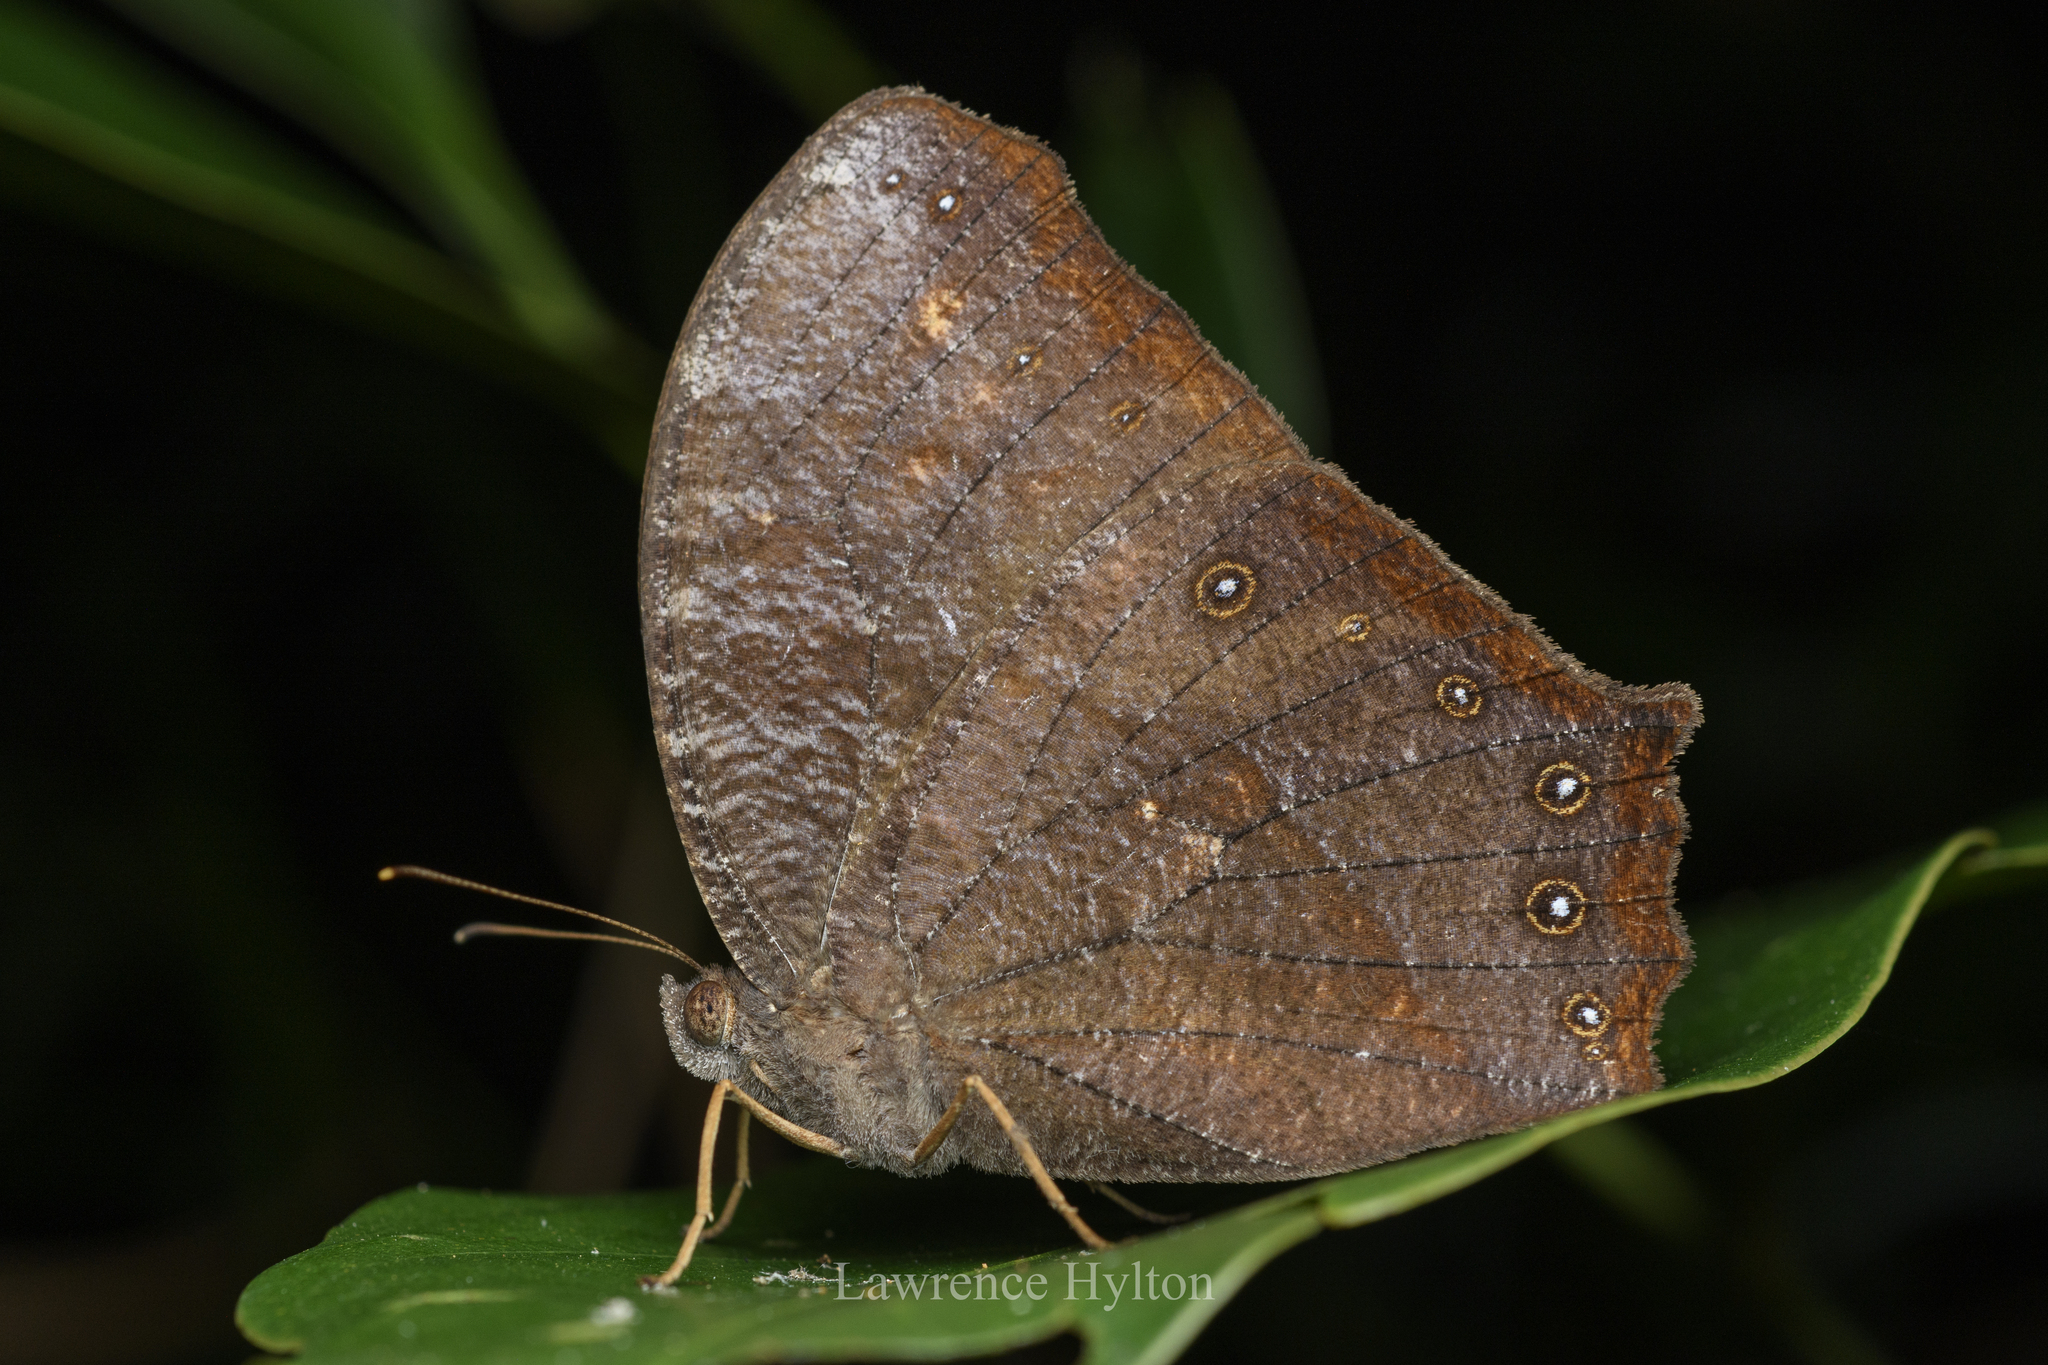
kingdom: Animalia
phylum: Arthropoda
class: Insecta
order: Lepidoptera
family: Nymphalidae
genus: Melanitis
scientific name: Melanitis phedima
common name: Dark evening brown
